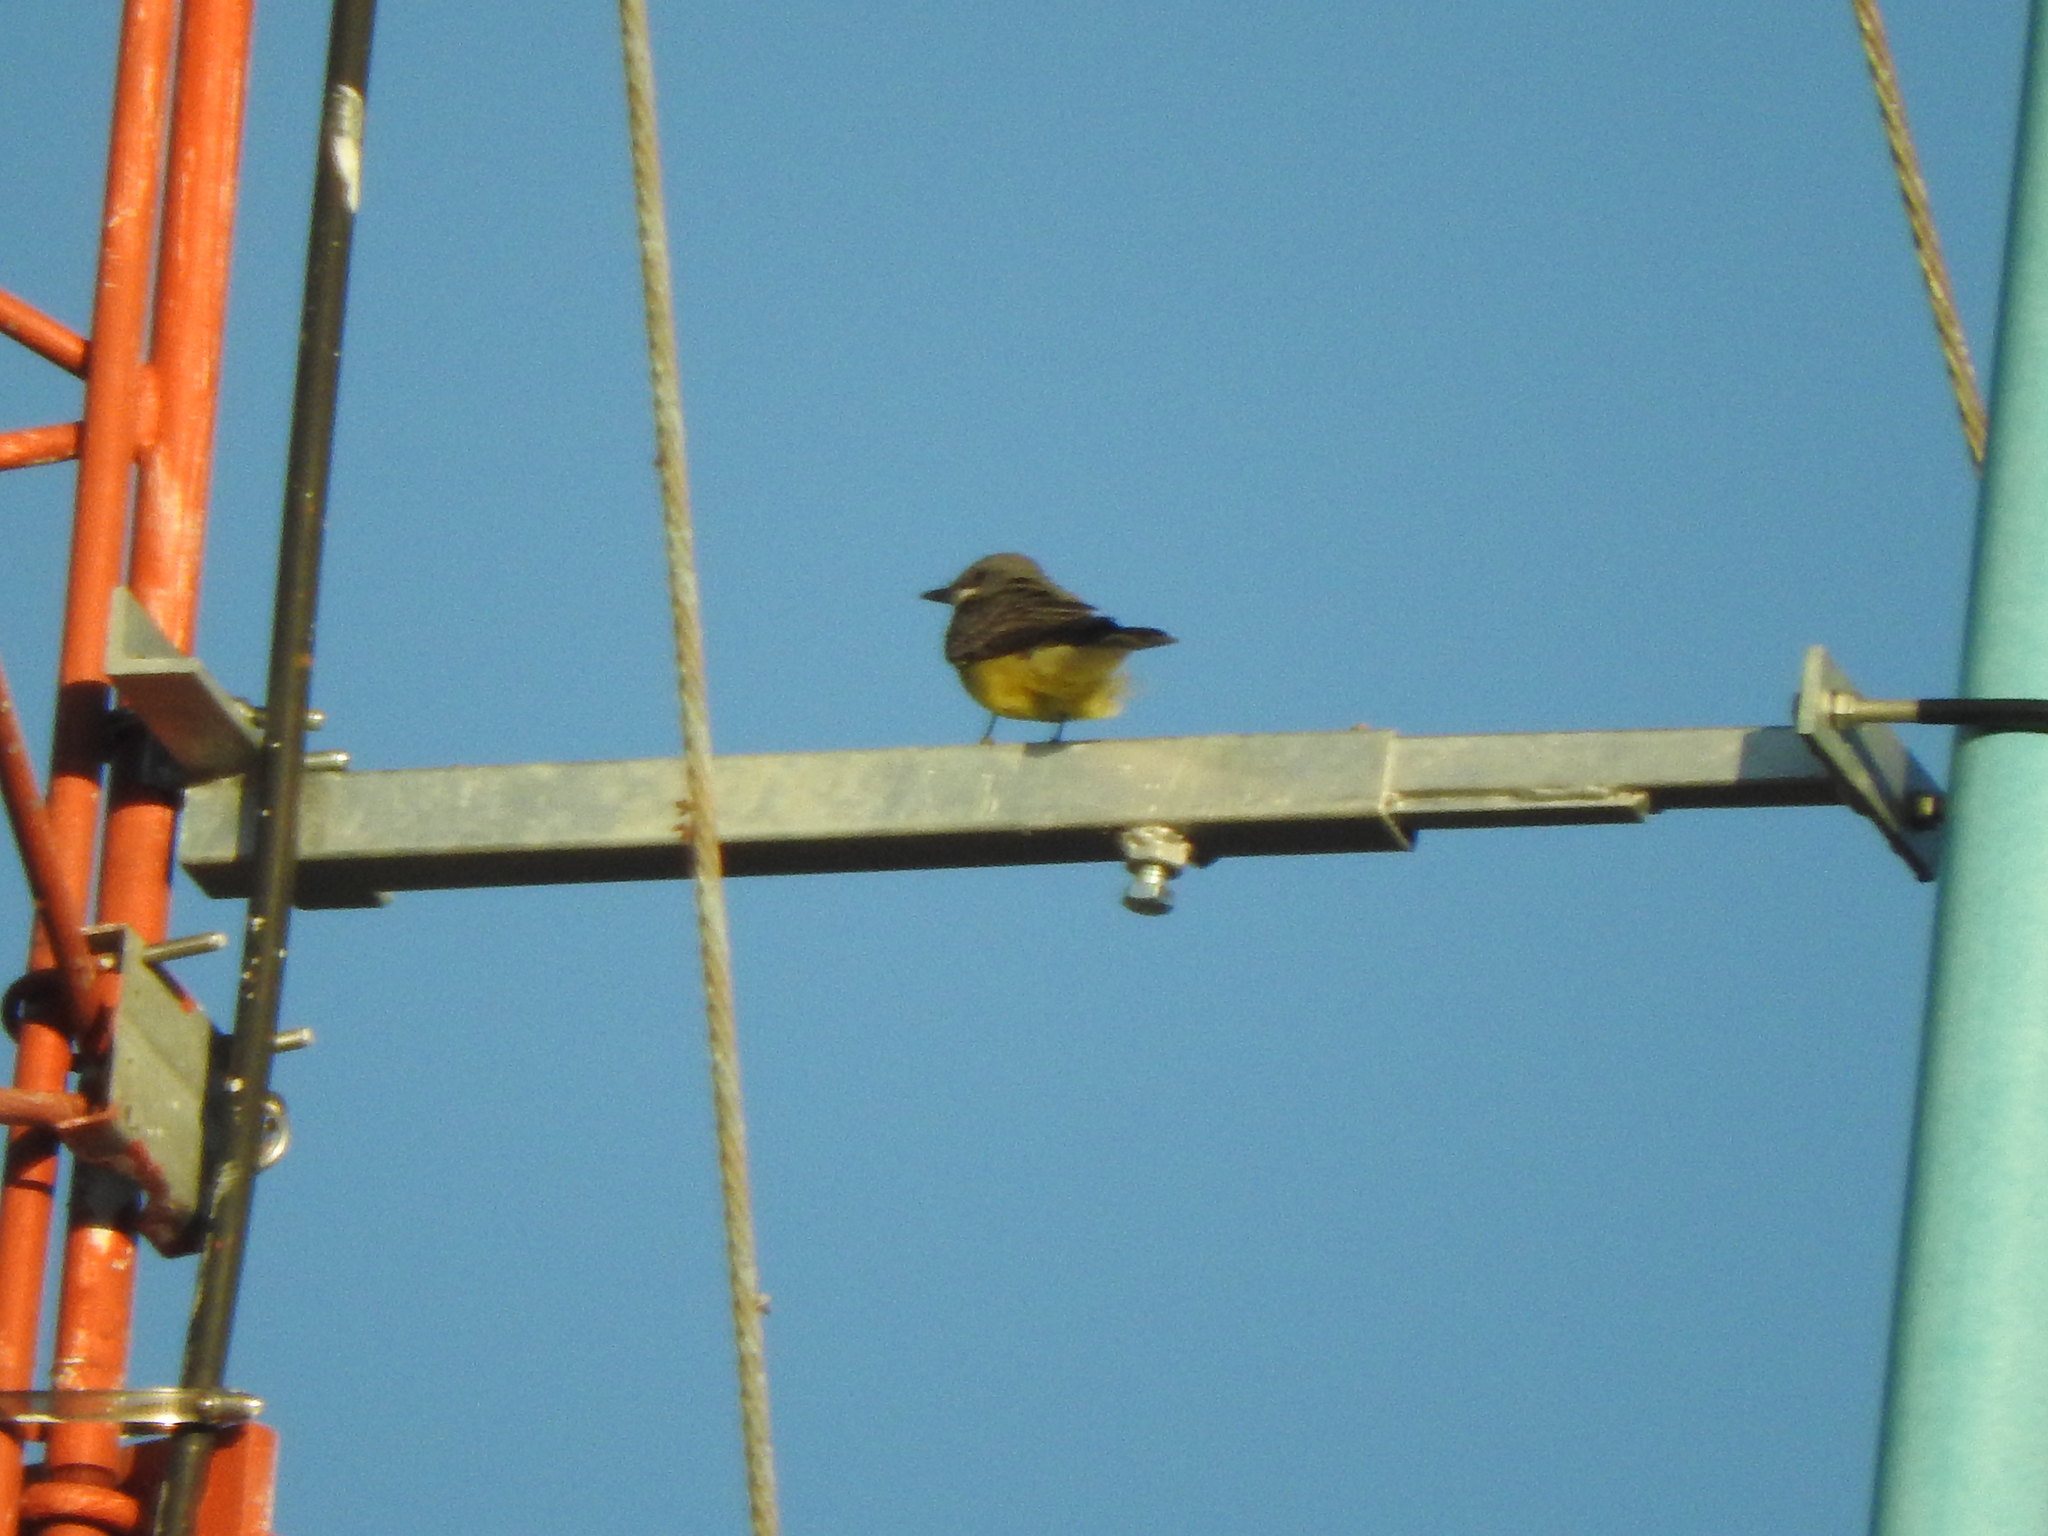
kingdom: Animalia
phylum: Chordata
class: Aves
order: Passeriformes
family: Tyrannidae
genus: Tyrannus
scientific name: Tyrannus vociferans
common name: Cassin's kingbird
